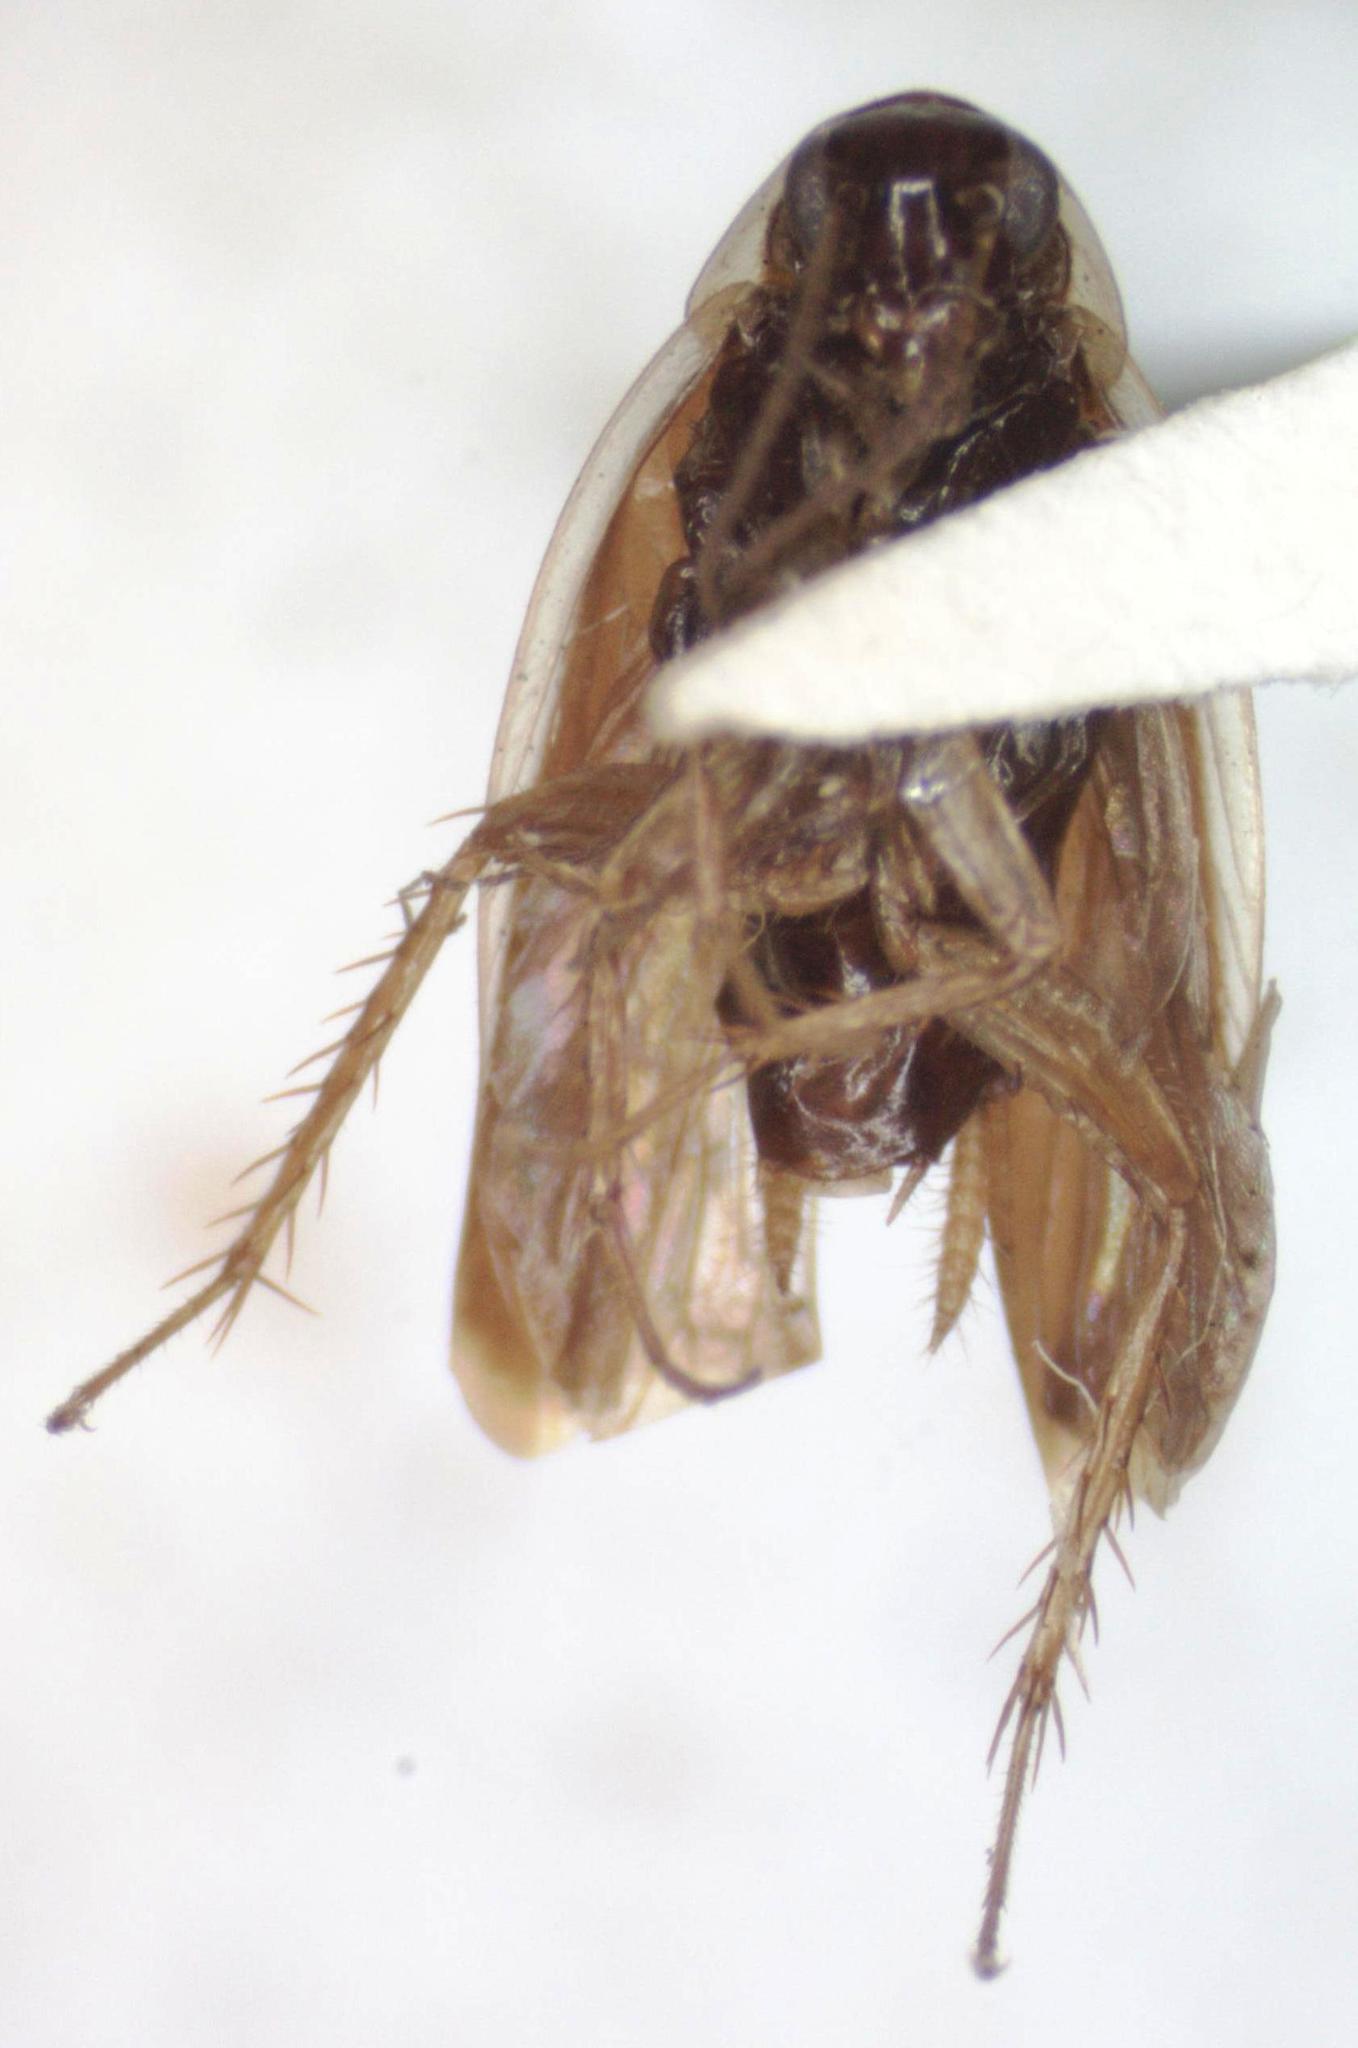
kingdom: Animalia
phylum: Arthropoda
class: Insecta
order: Blattodea
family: Anaplectidae
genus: Anaplecta
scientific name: Anaplecta fallax
